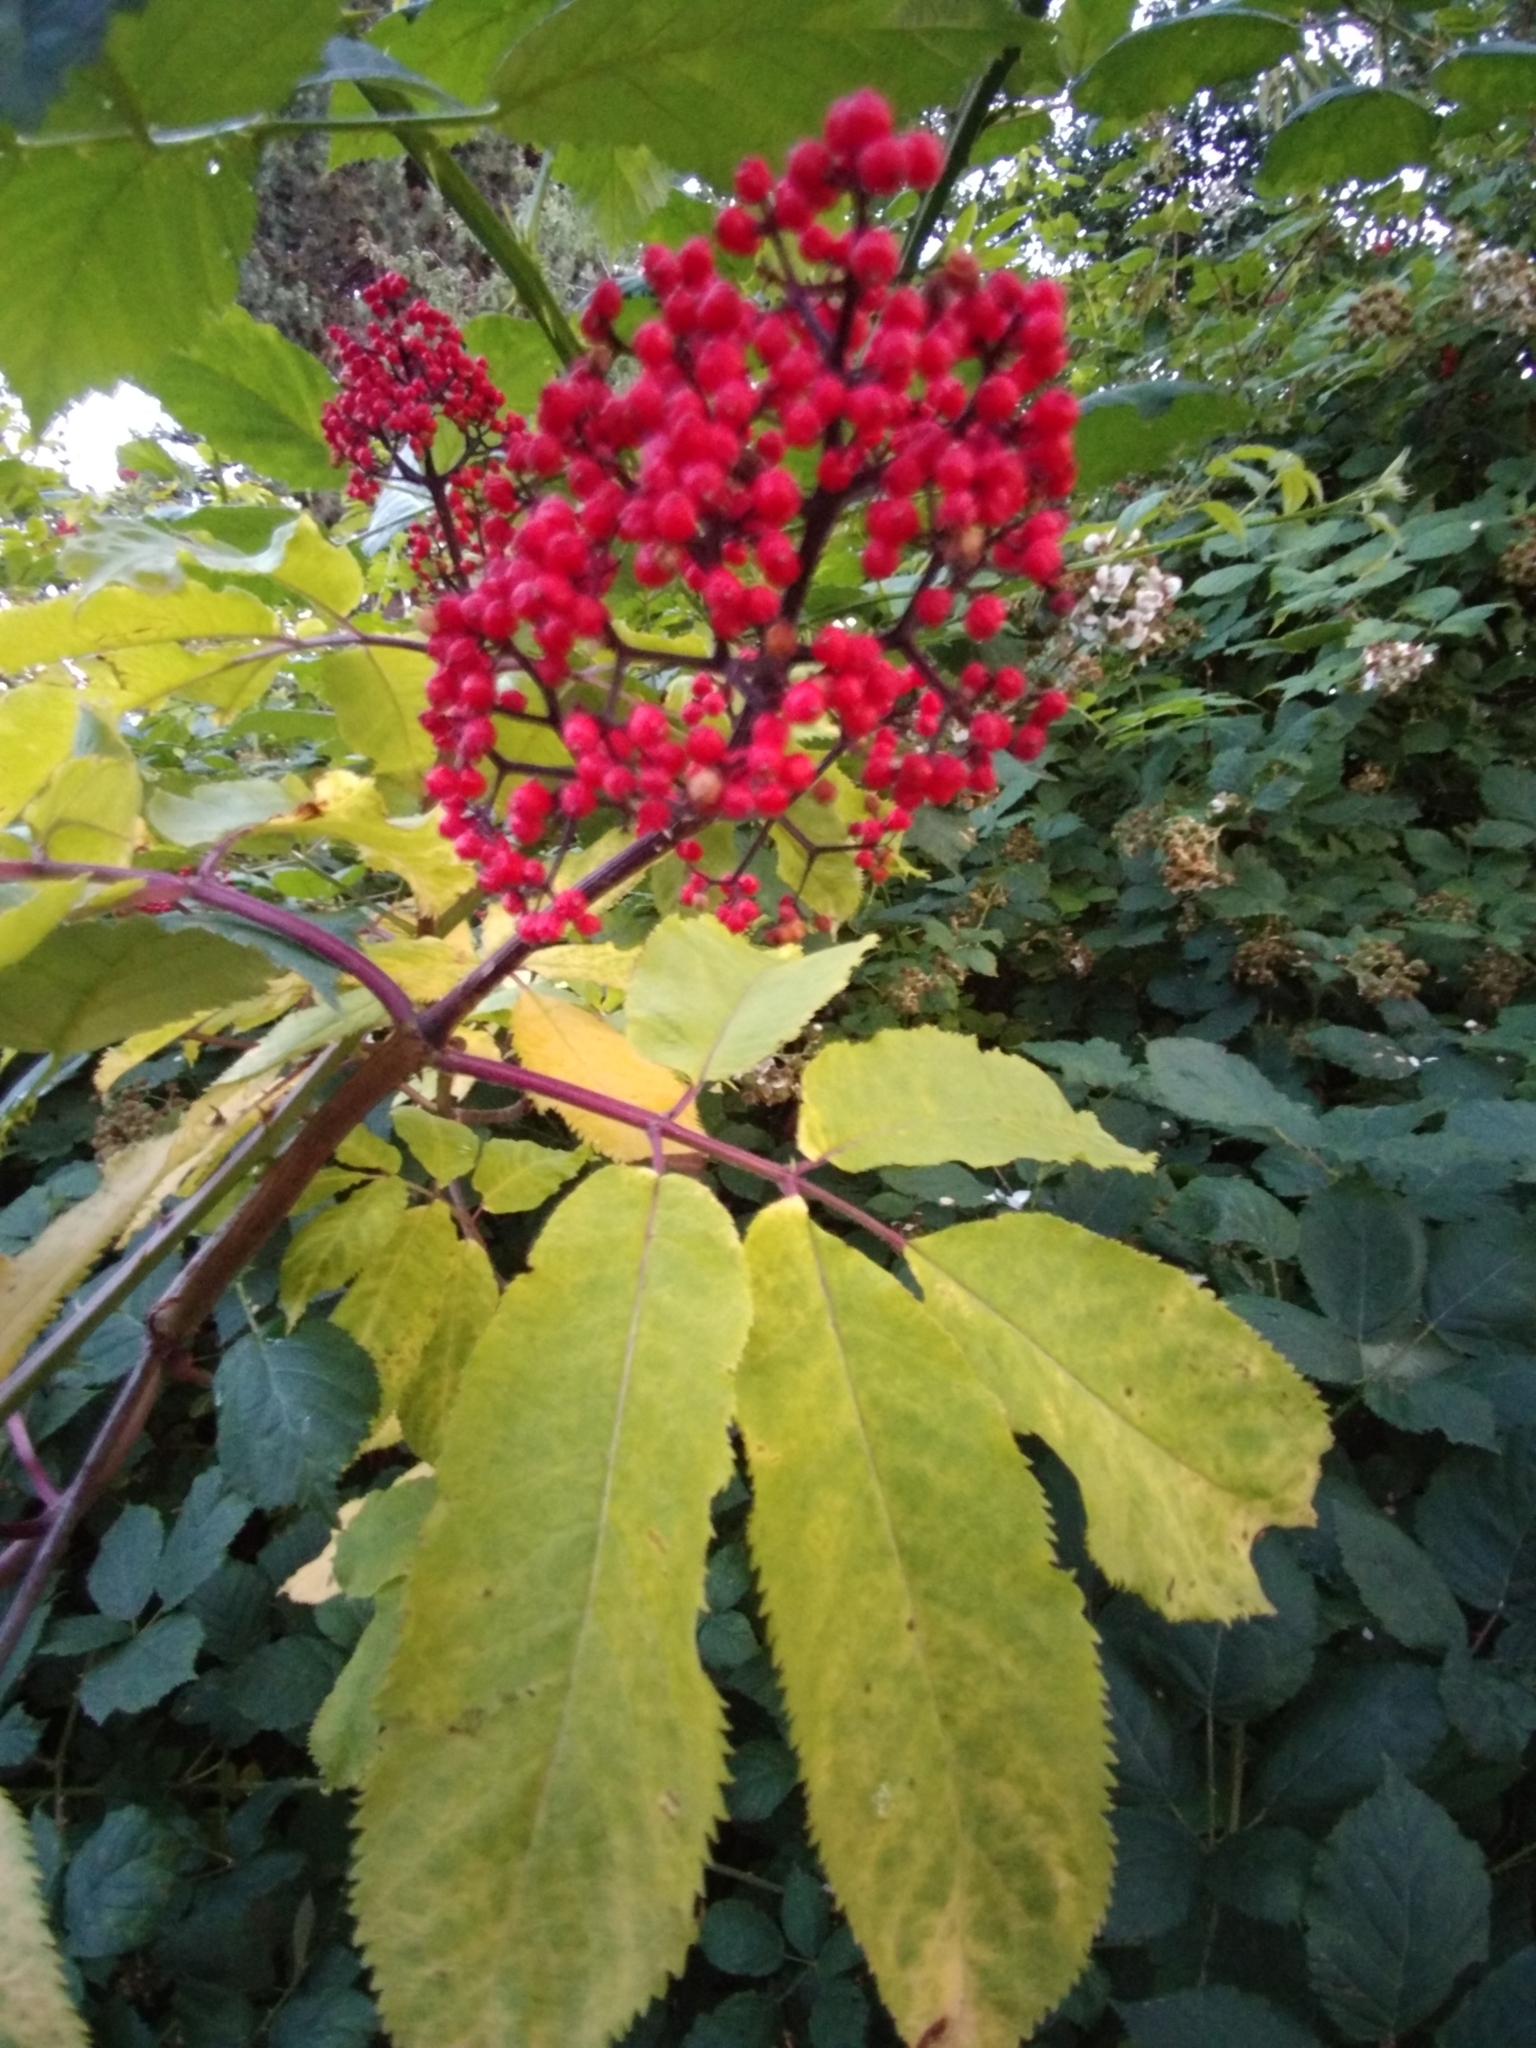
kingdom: Plantae
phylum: Tracheophyta
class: Magnoliopsida
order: Dipsacales
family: Viburnaceae
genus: Sambucus
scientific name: Sambucus racemosa
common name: Red-berried elder
